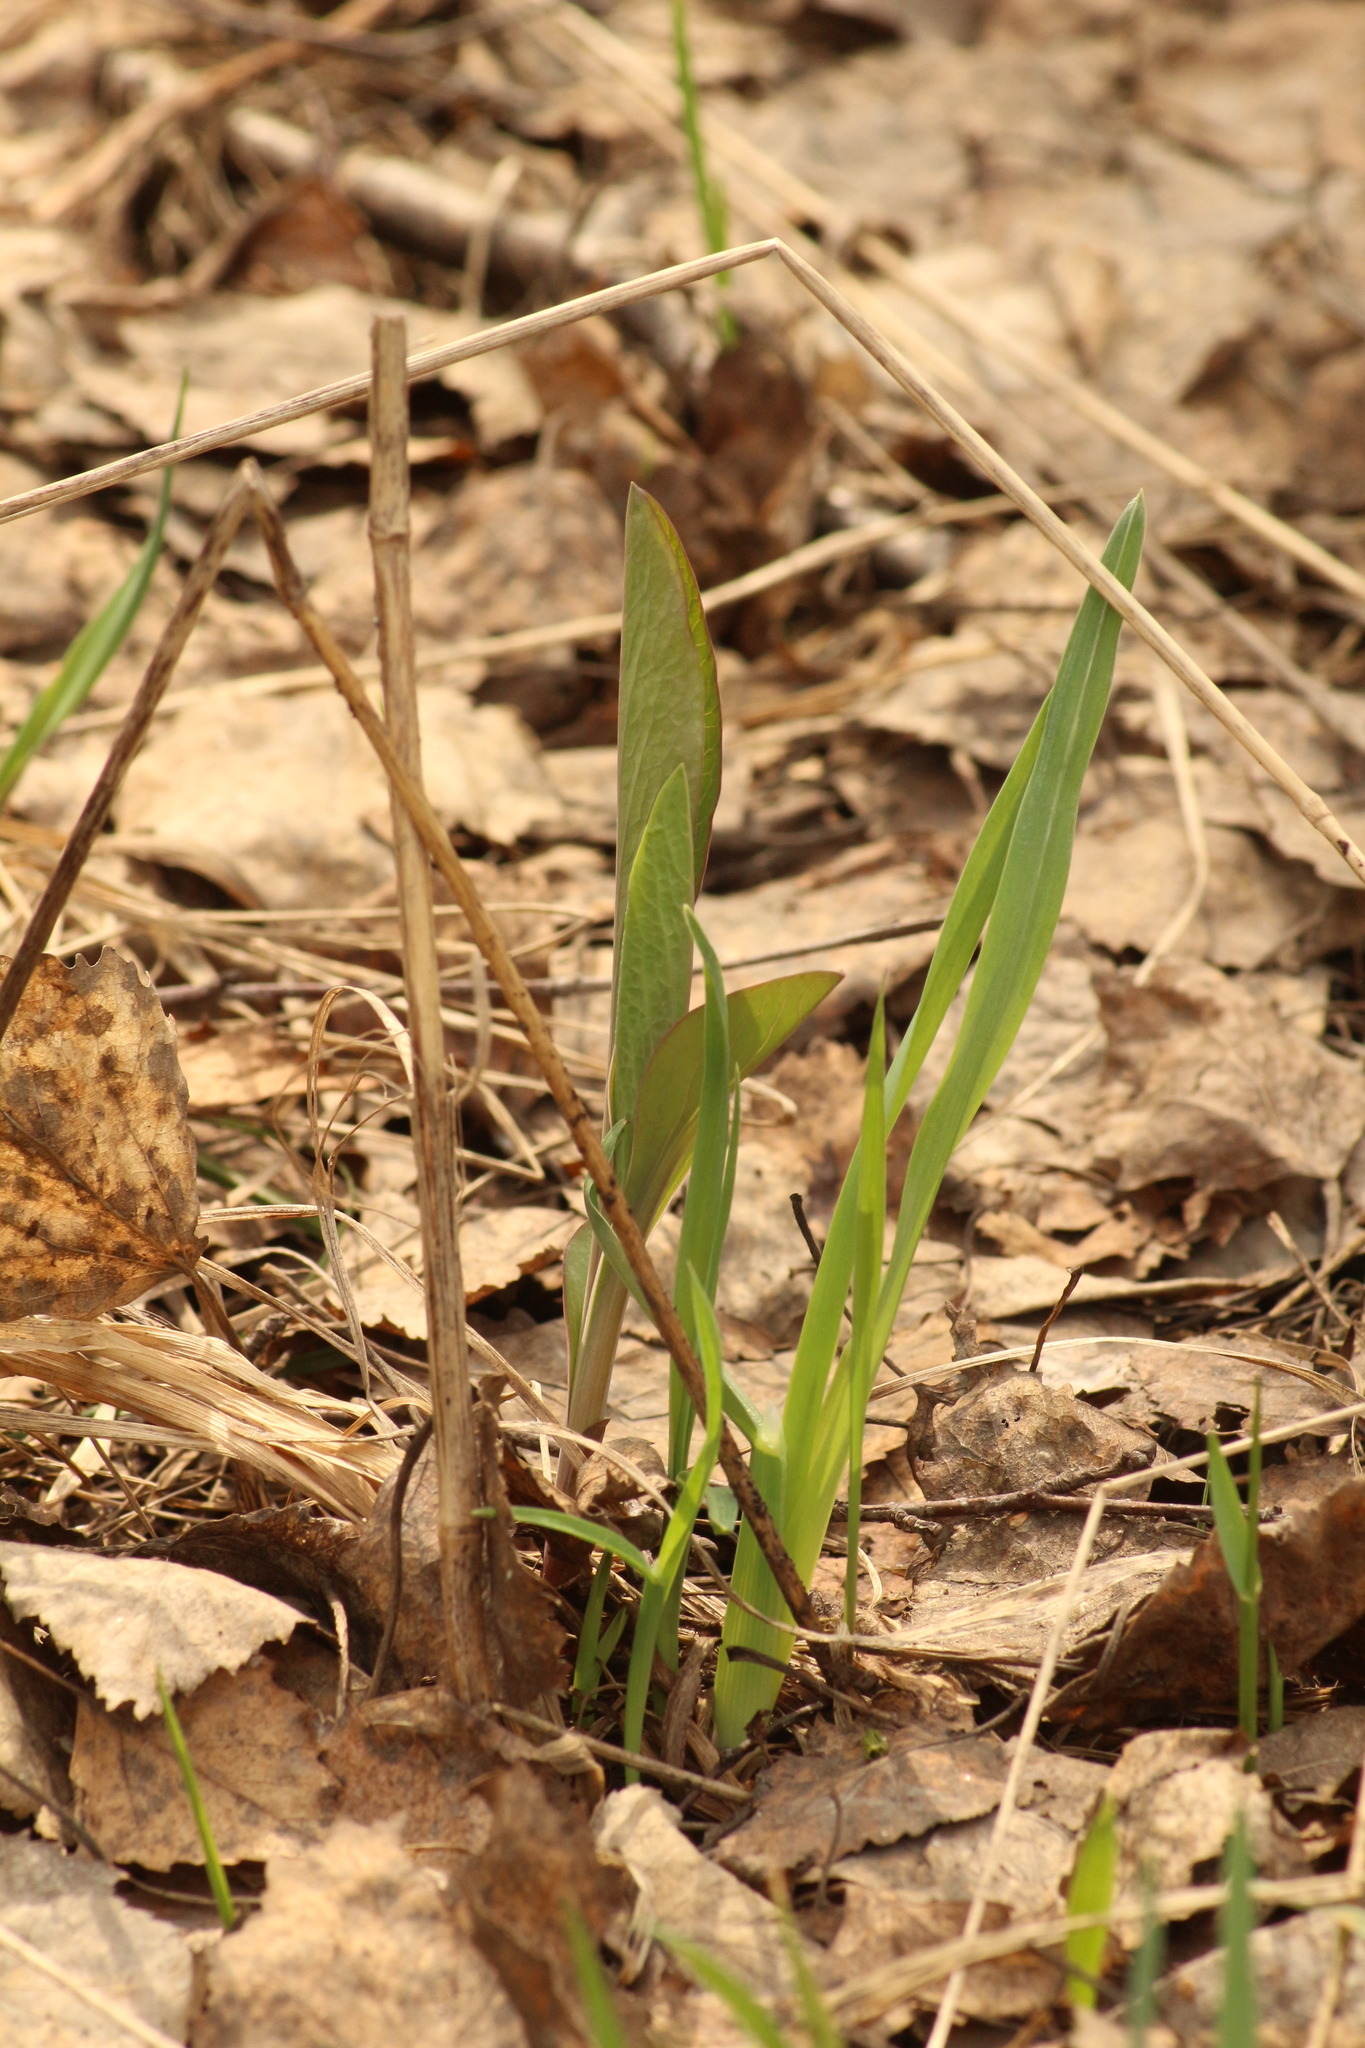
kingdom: Plantae
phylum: Tracheophyta
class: Magnoliopsida
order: Apiales
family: Apiaceae
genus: Bupleurum
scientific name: Bupleurum aureum
